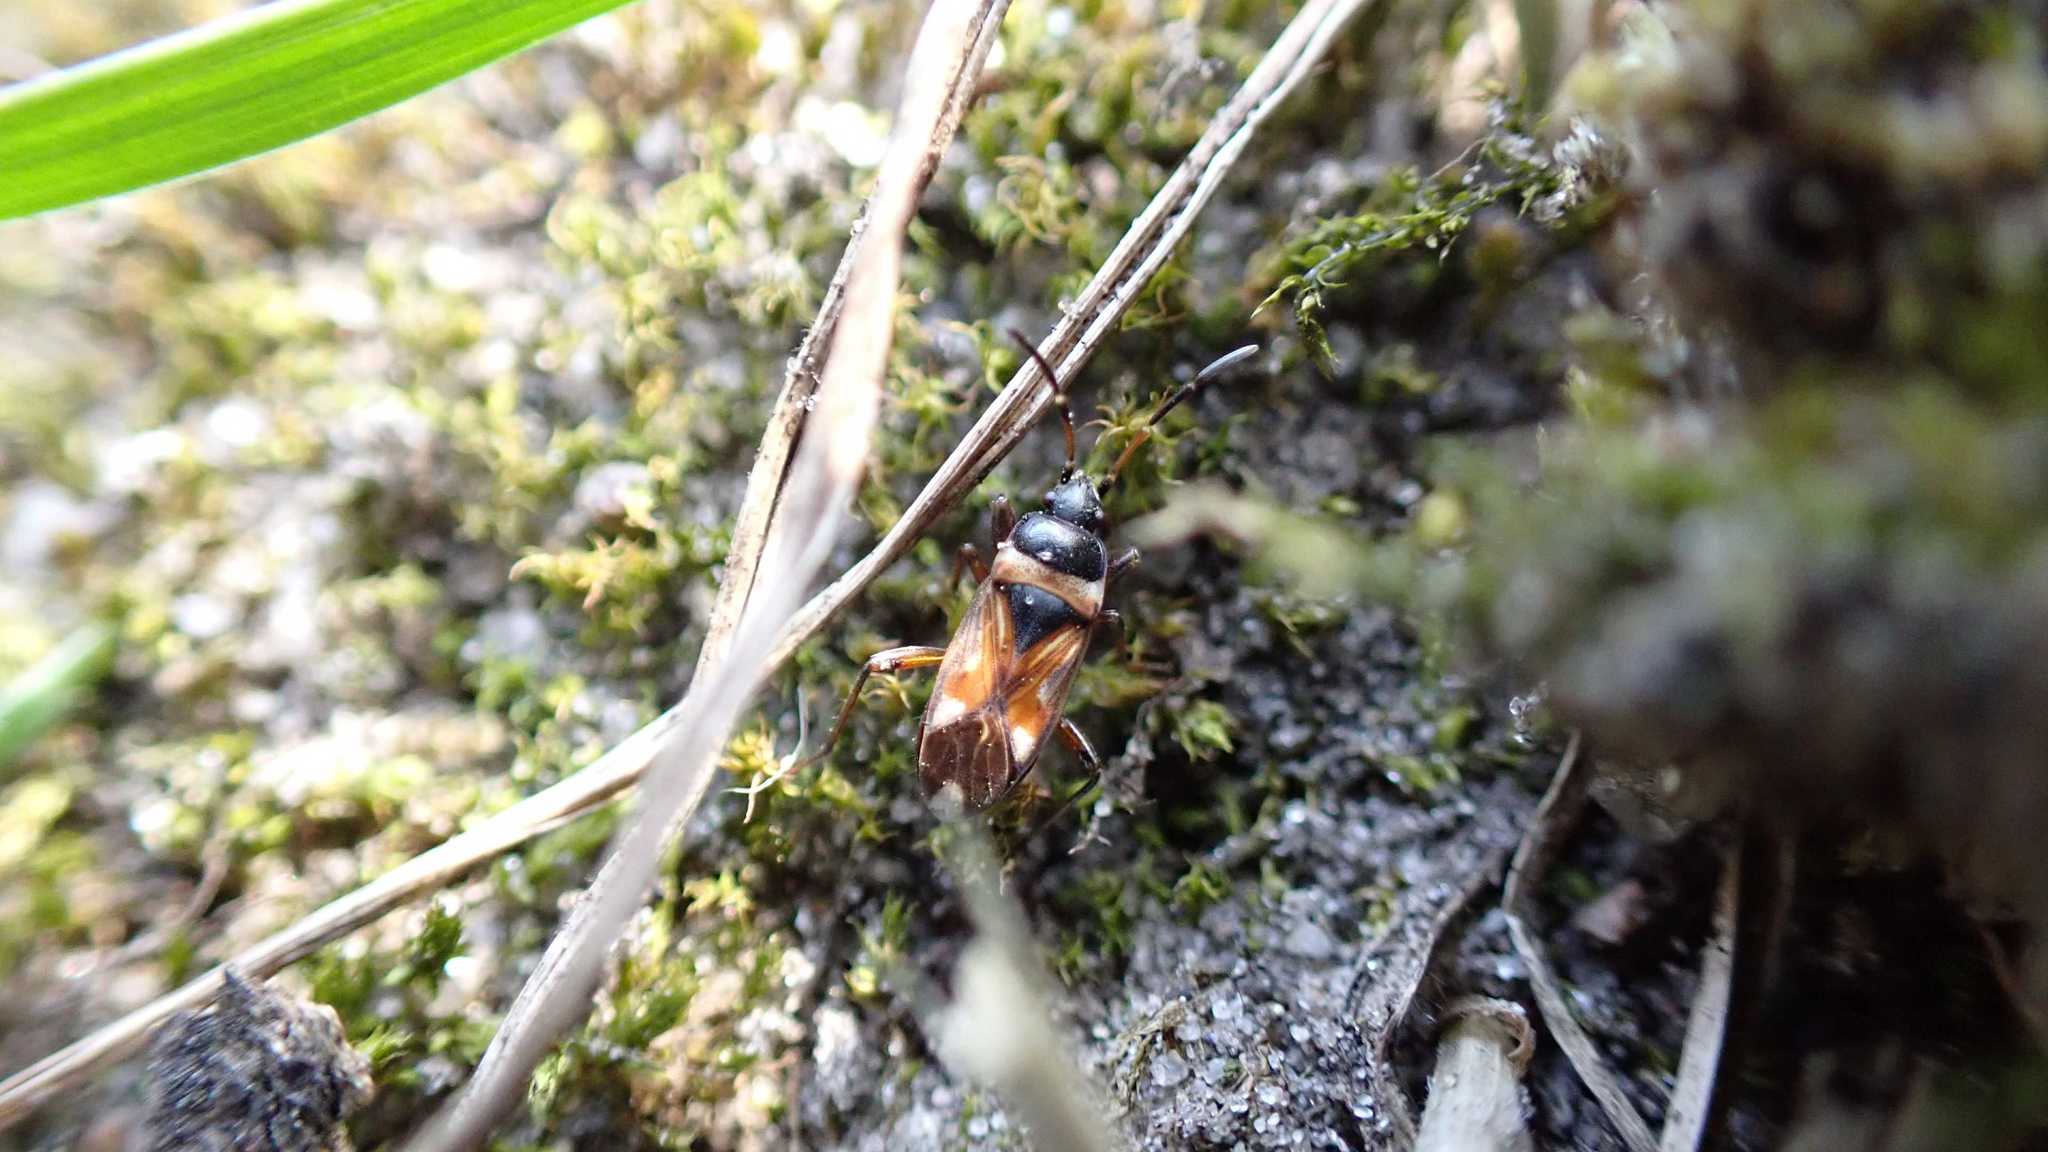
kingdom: Animalia
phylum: Arthropoda
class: Insecta
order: Hemiptera
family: Rhyparochromidae
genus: Raglius
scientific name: Raglius alboacuminatus
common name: Dirt-colored seed bug
